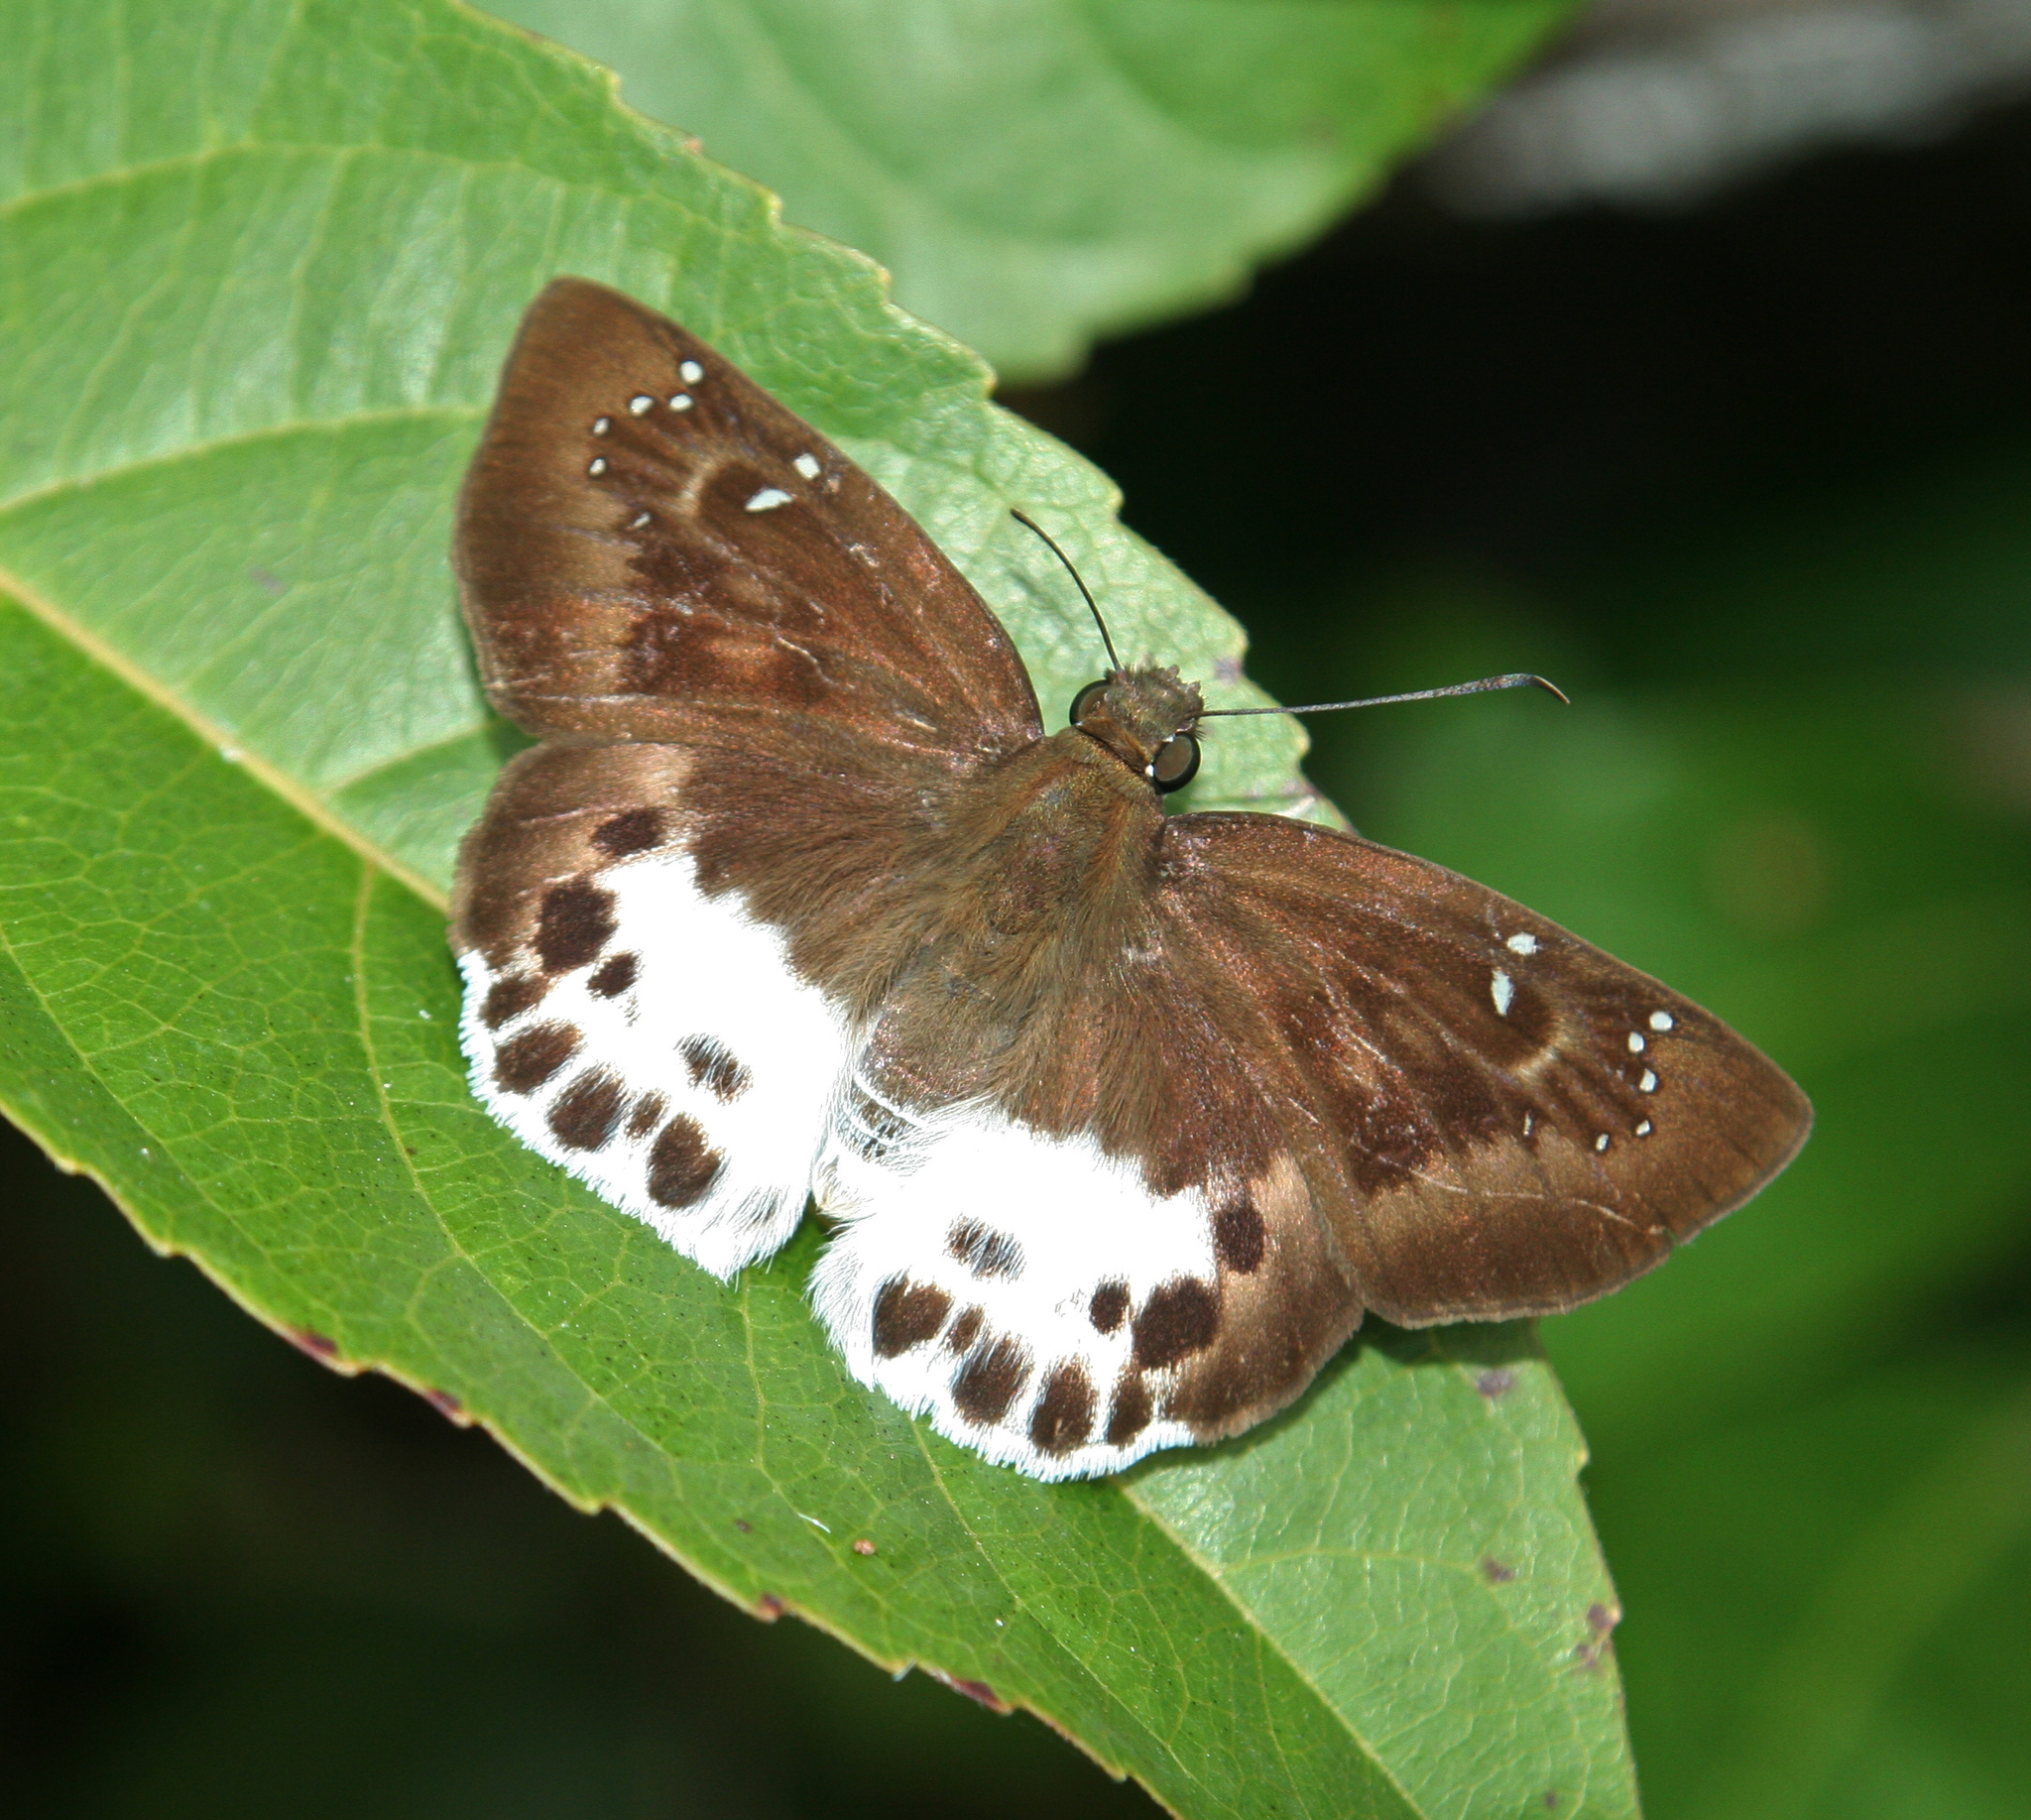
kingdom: Animalia
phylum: Arthropoda
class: Insecta
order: Lepidoptera
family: Hesperiidae
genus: Tagiades
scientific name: Tagiades menaka
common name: Dark-edged snow flat
